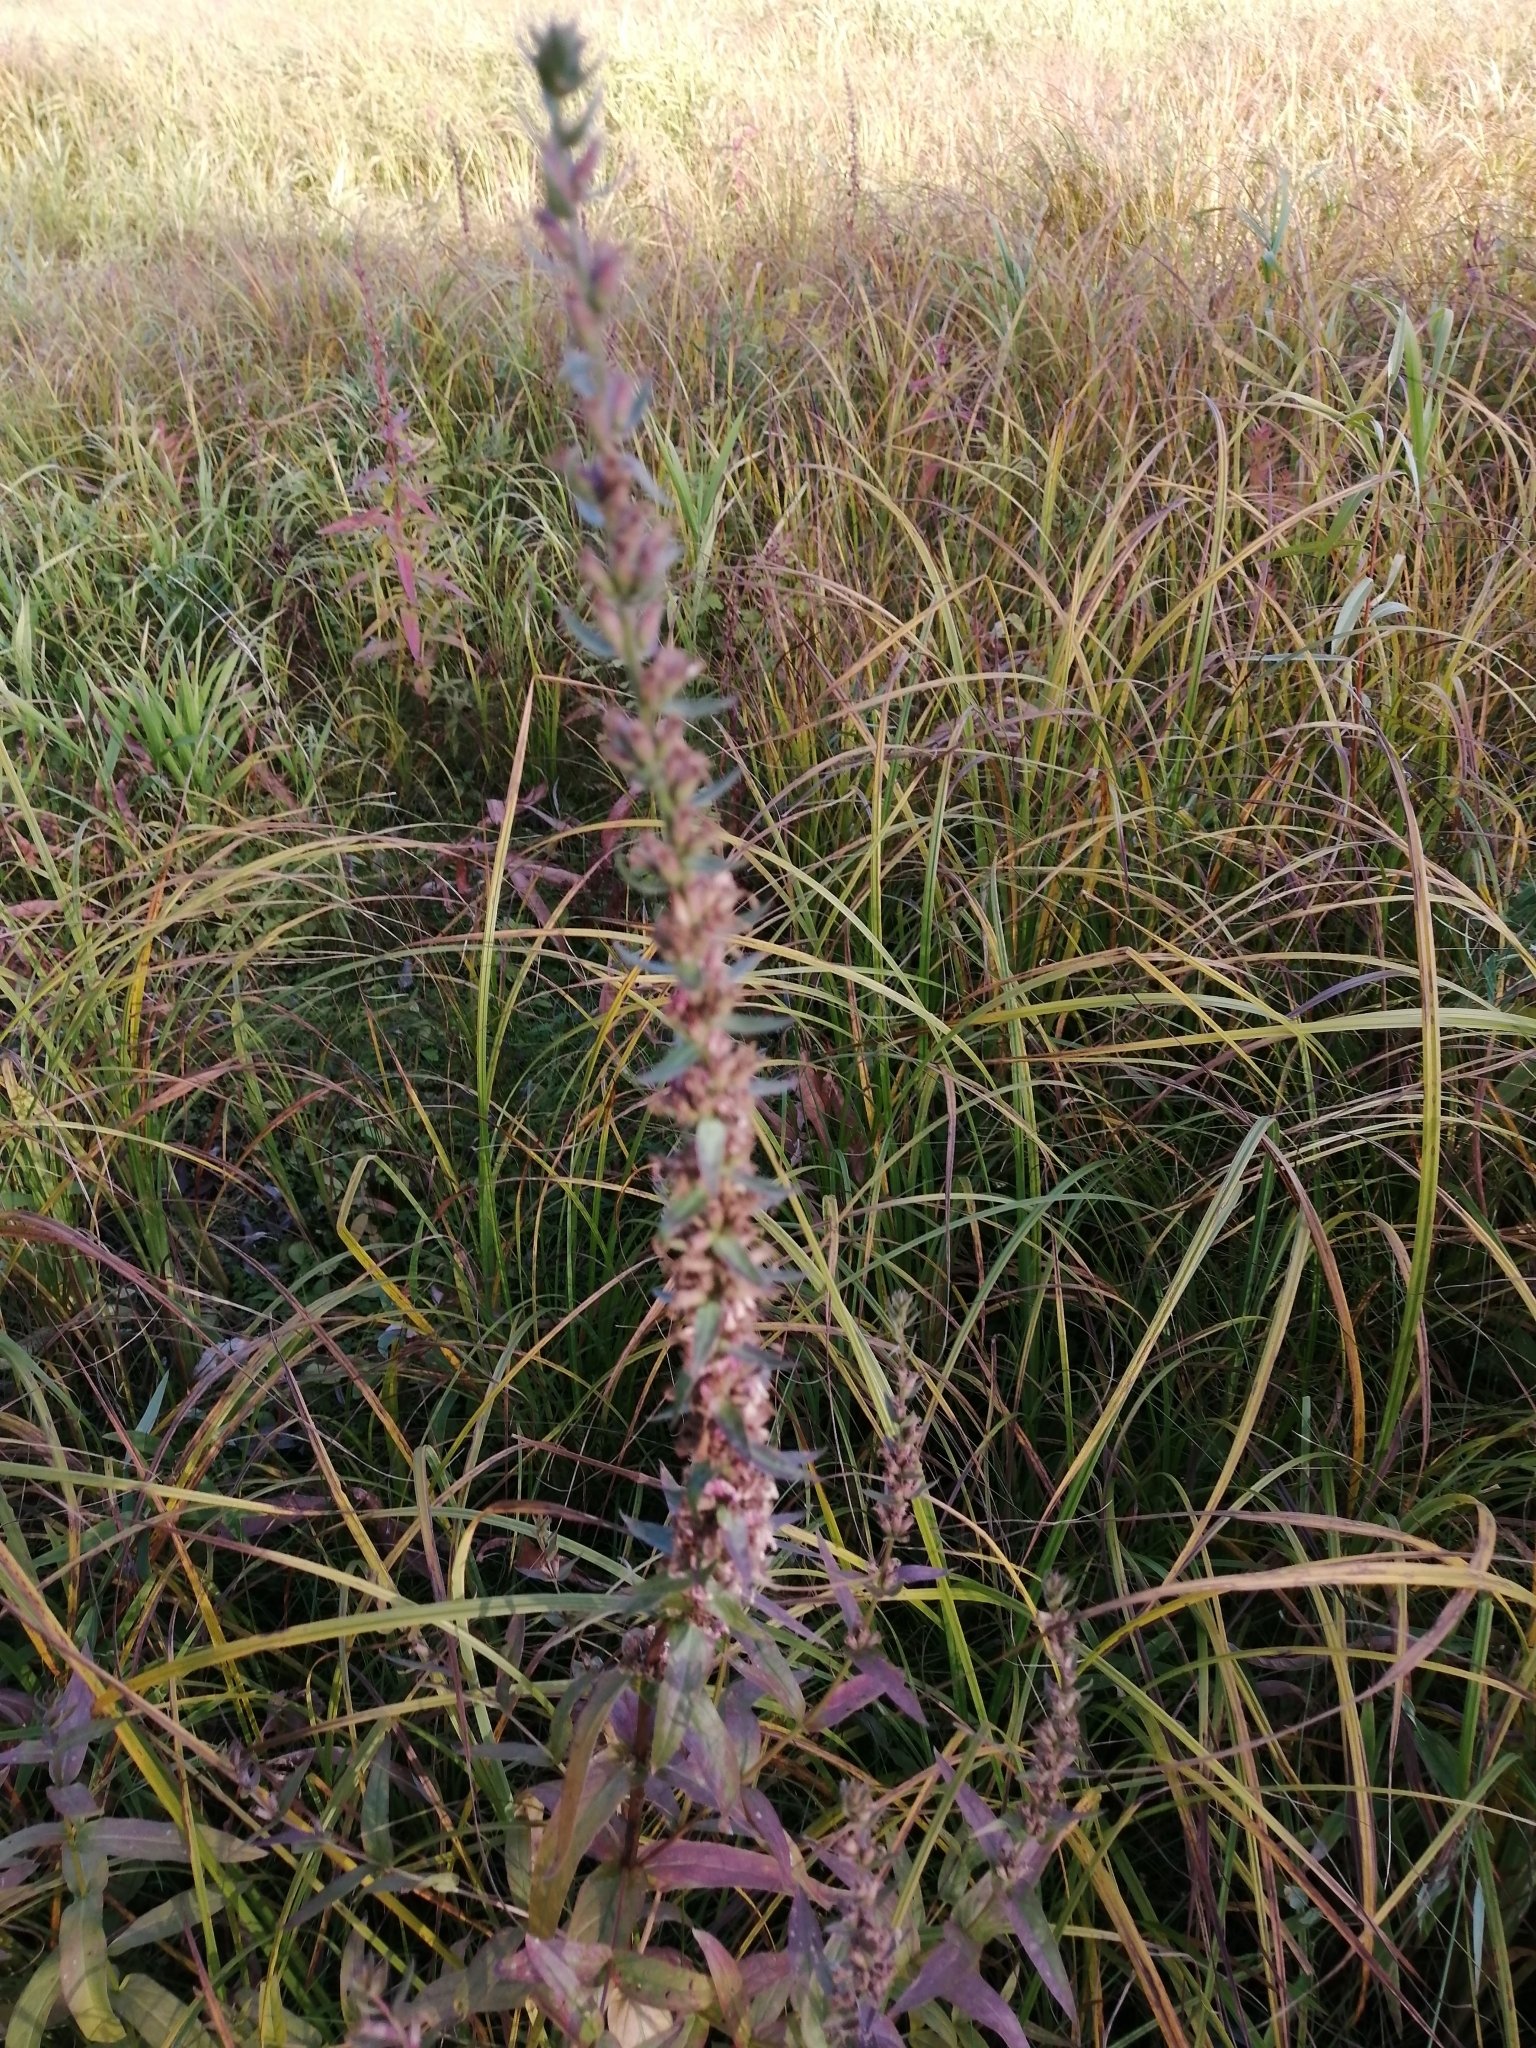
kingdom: Plantae
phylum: Tracheophyta
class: Magnoliopsida
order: Myrtales
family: Lythraceae
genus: Lythrum
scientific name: Lythrum salicaria
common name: Purple loosestrife
